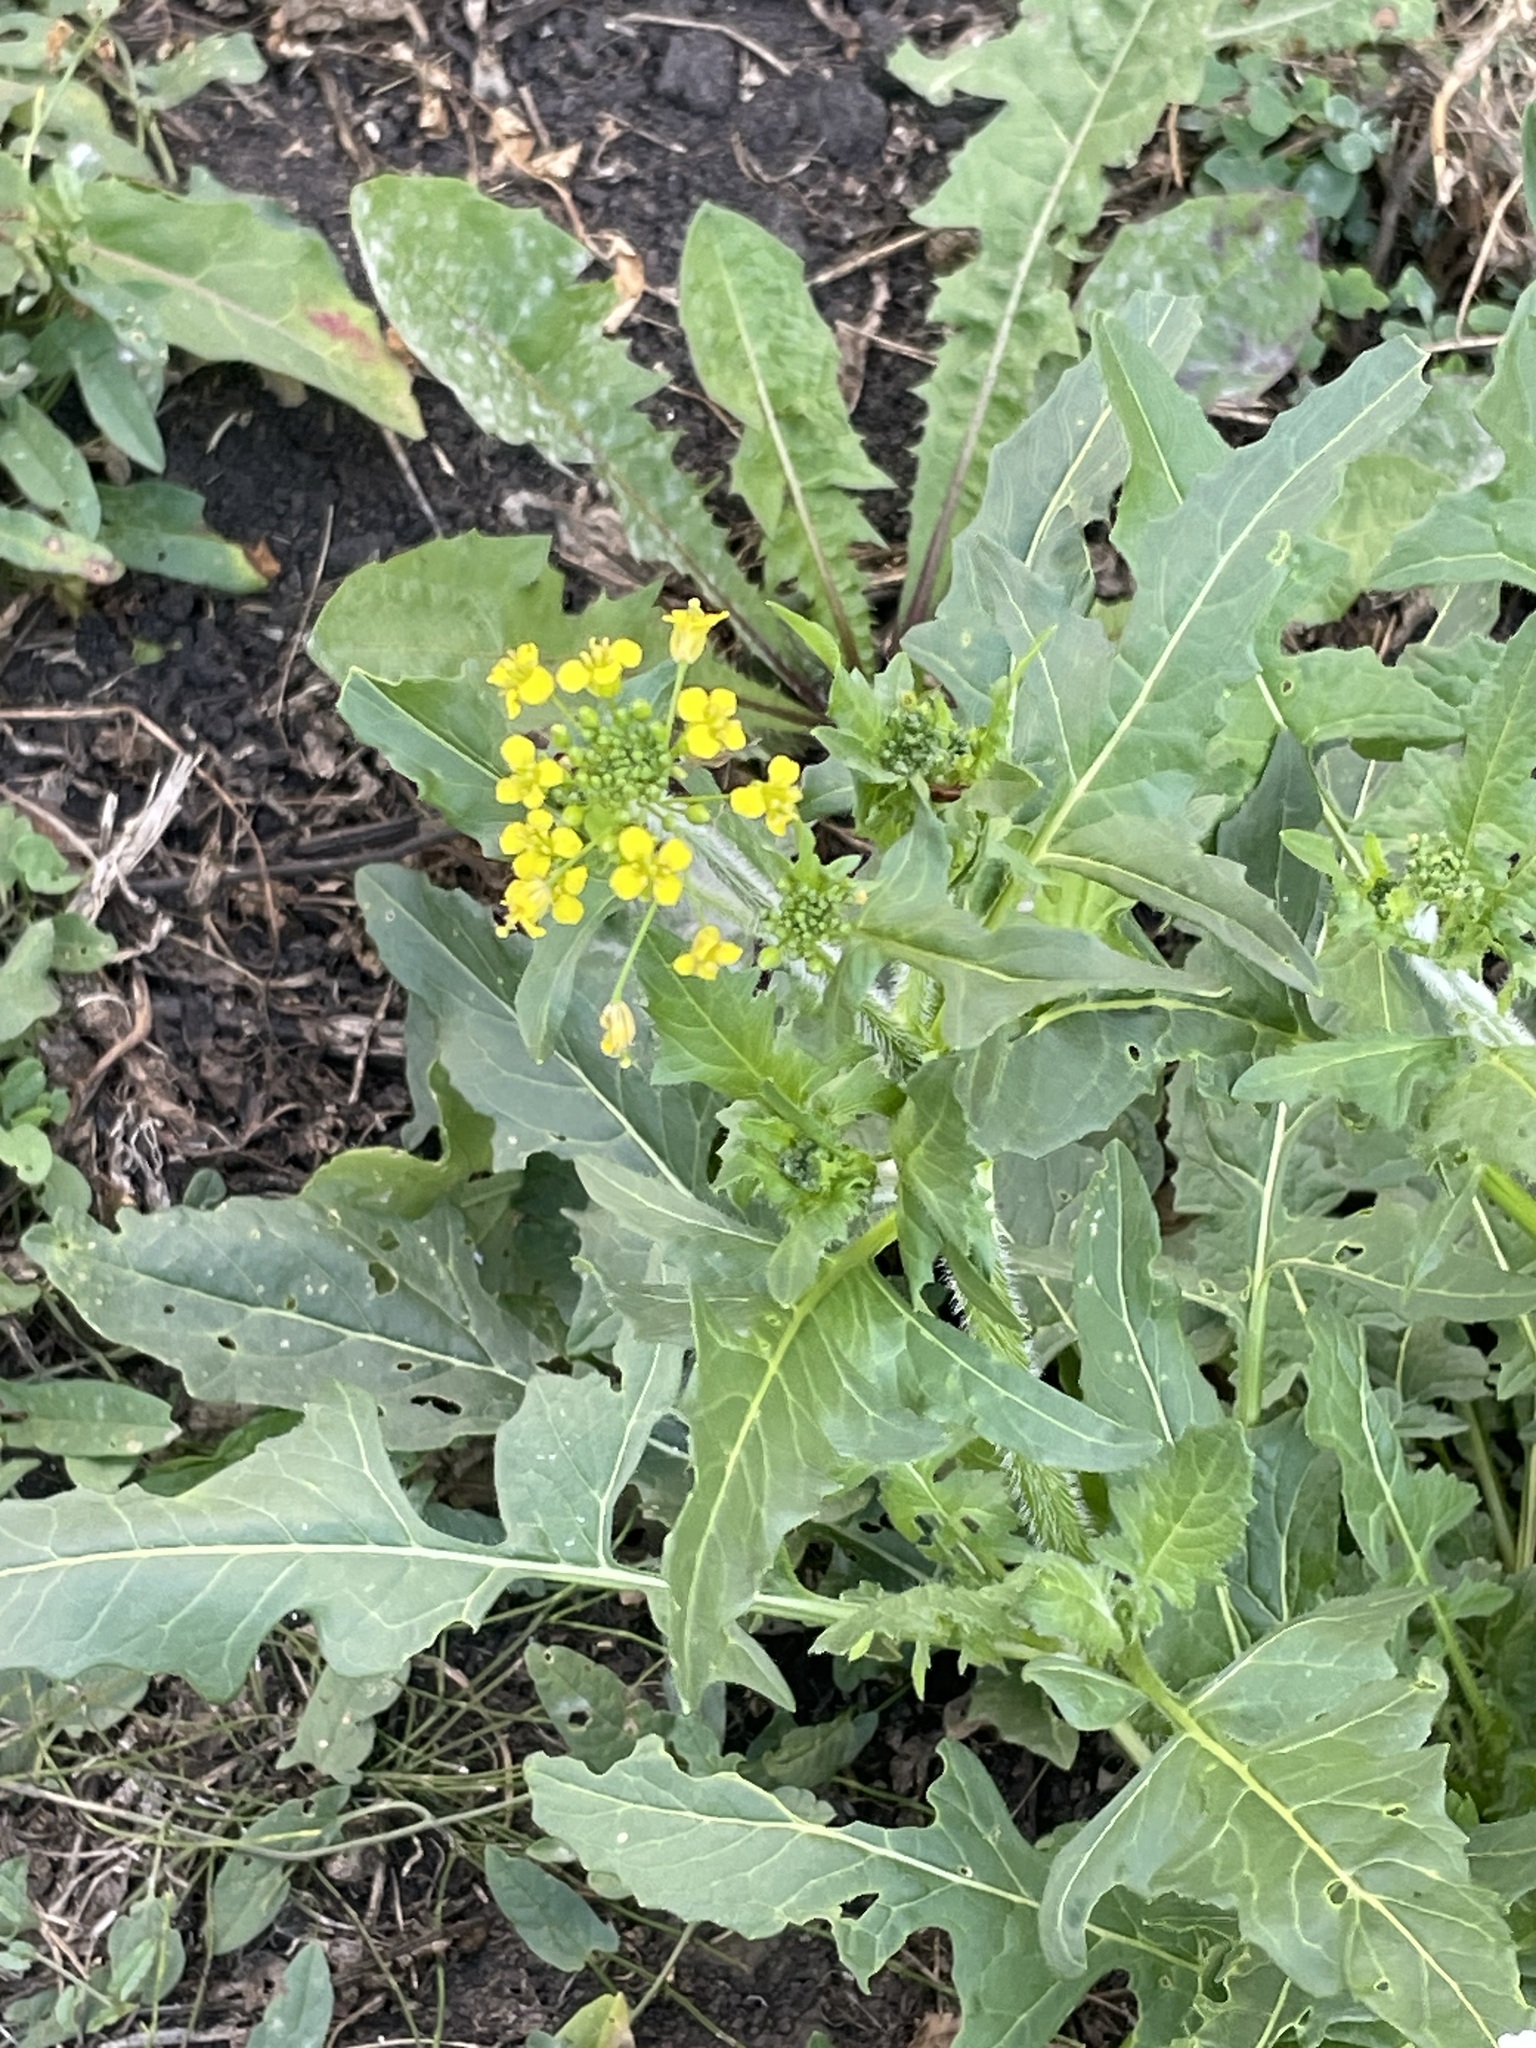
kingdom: Plantae
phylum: Tracheophyta
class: Magnoliopsida
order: Brassicales
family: Brassicaceae
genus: Sisymbrium
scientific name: Sisymbrium loeselii
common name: False london-rocket
